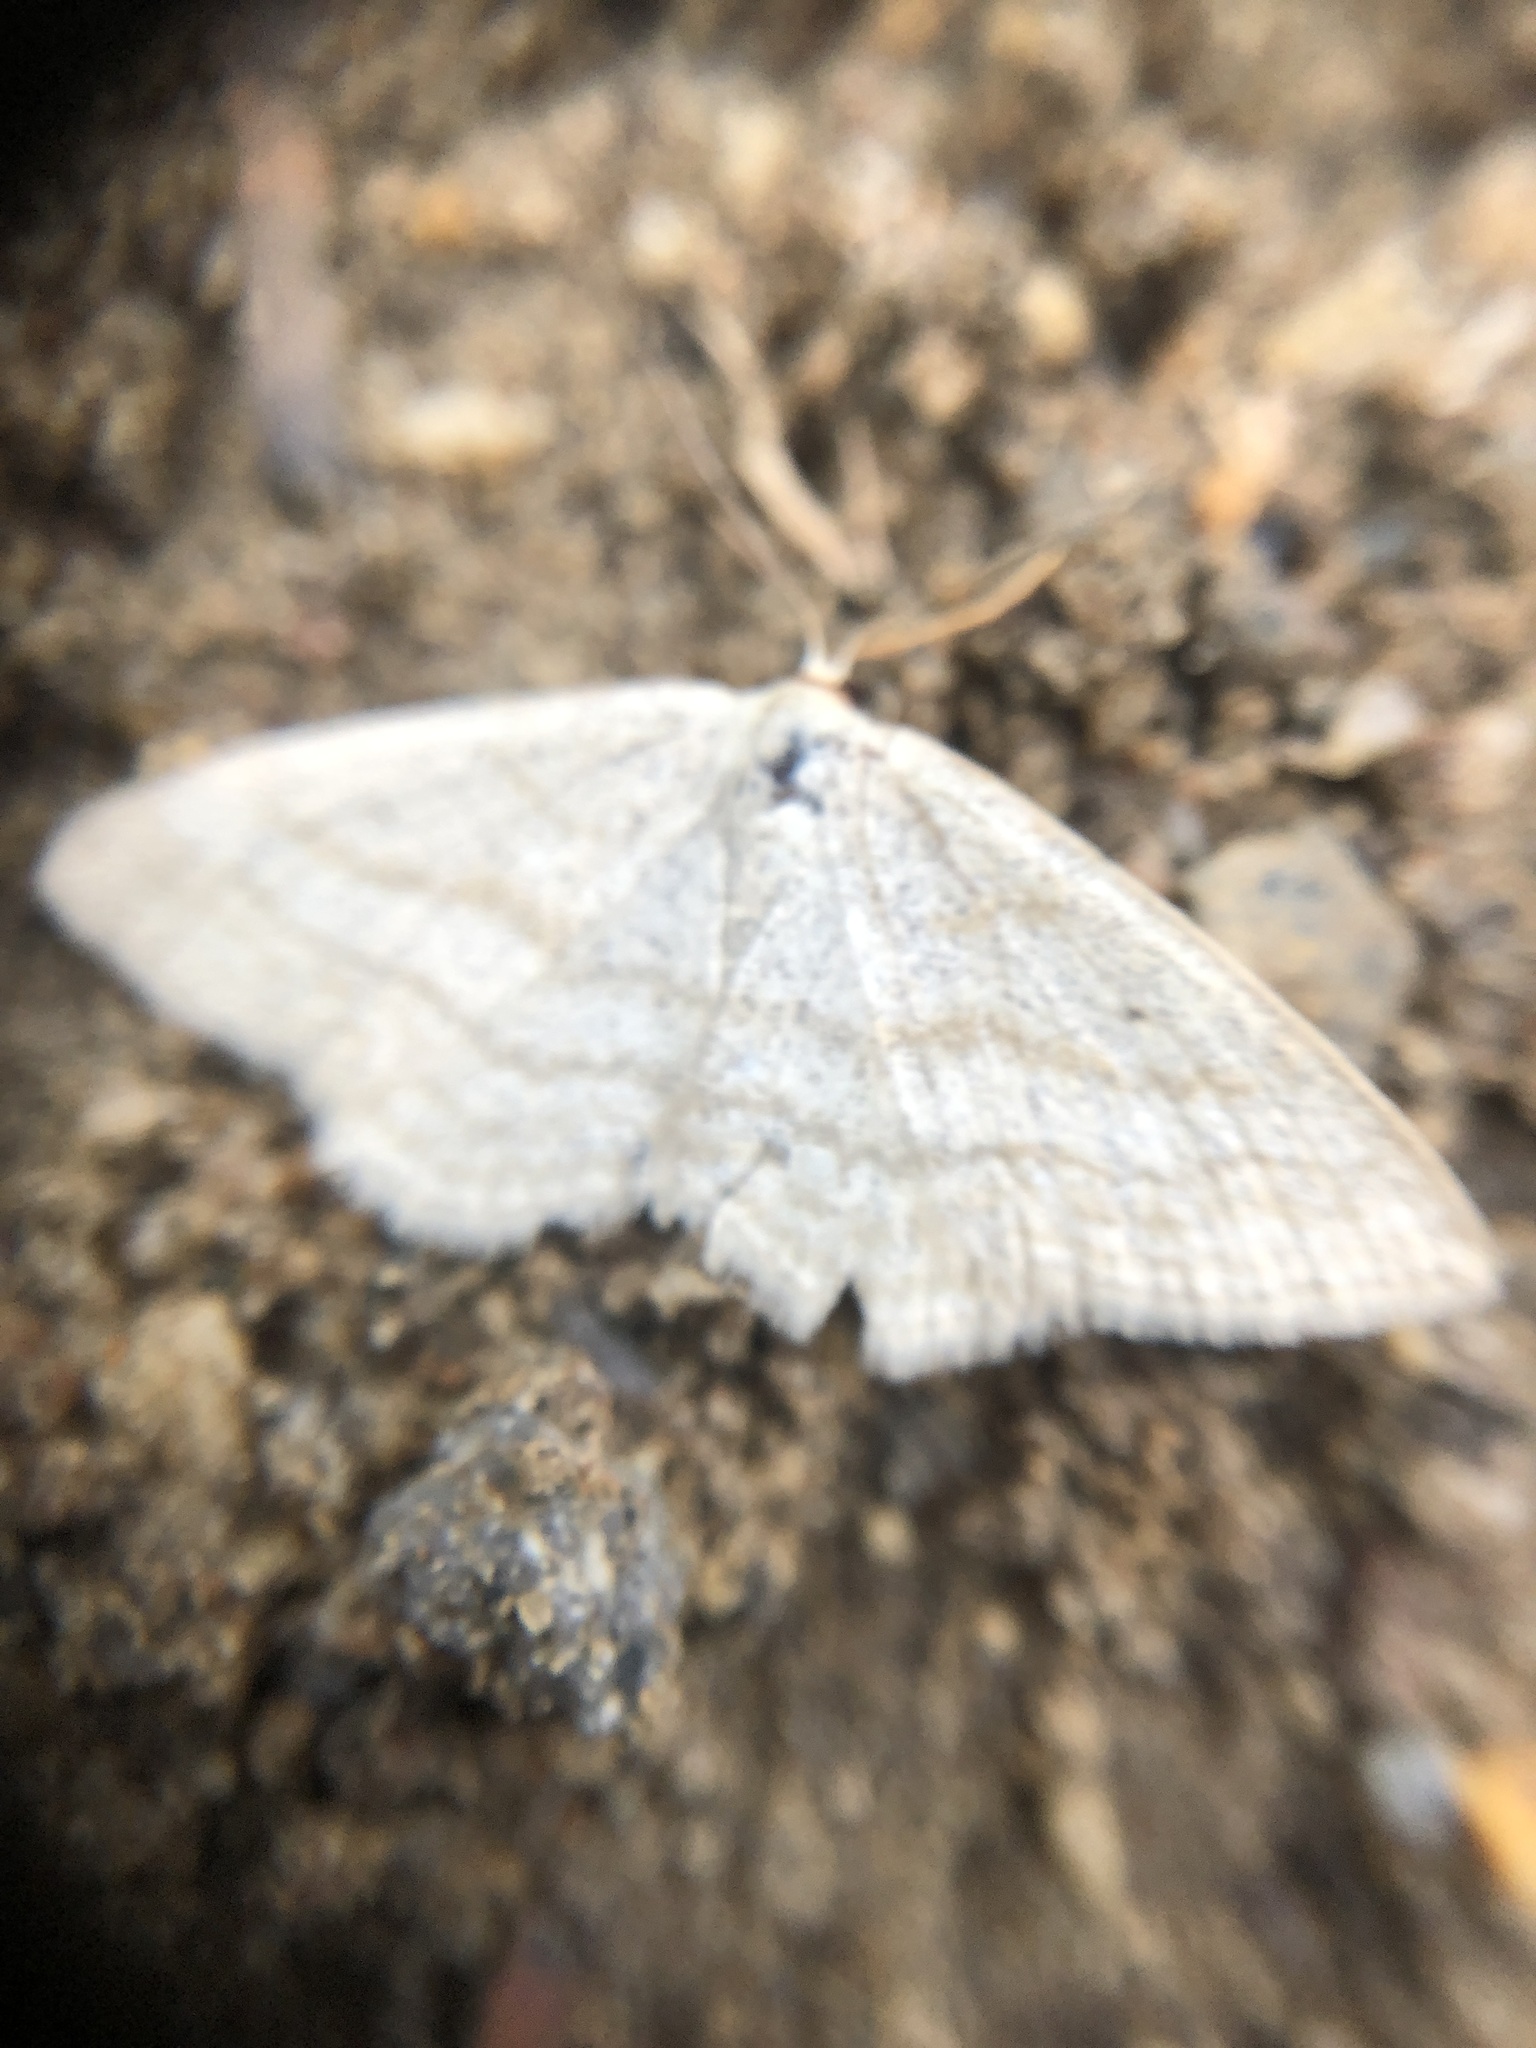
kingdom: Animalia
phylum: Arthropoda
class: Insecta
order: Lepidoptera
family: Geometridae
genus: Scopula
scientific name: Scopula junctaria
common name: Simple wave
